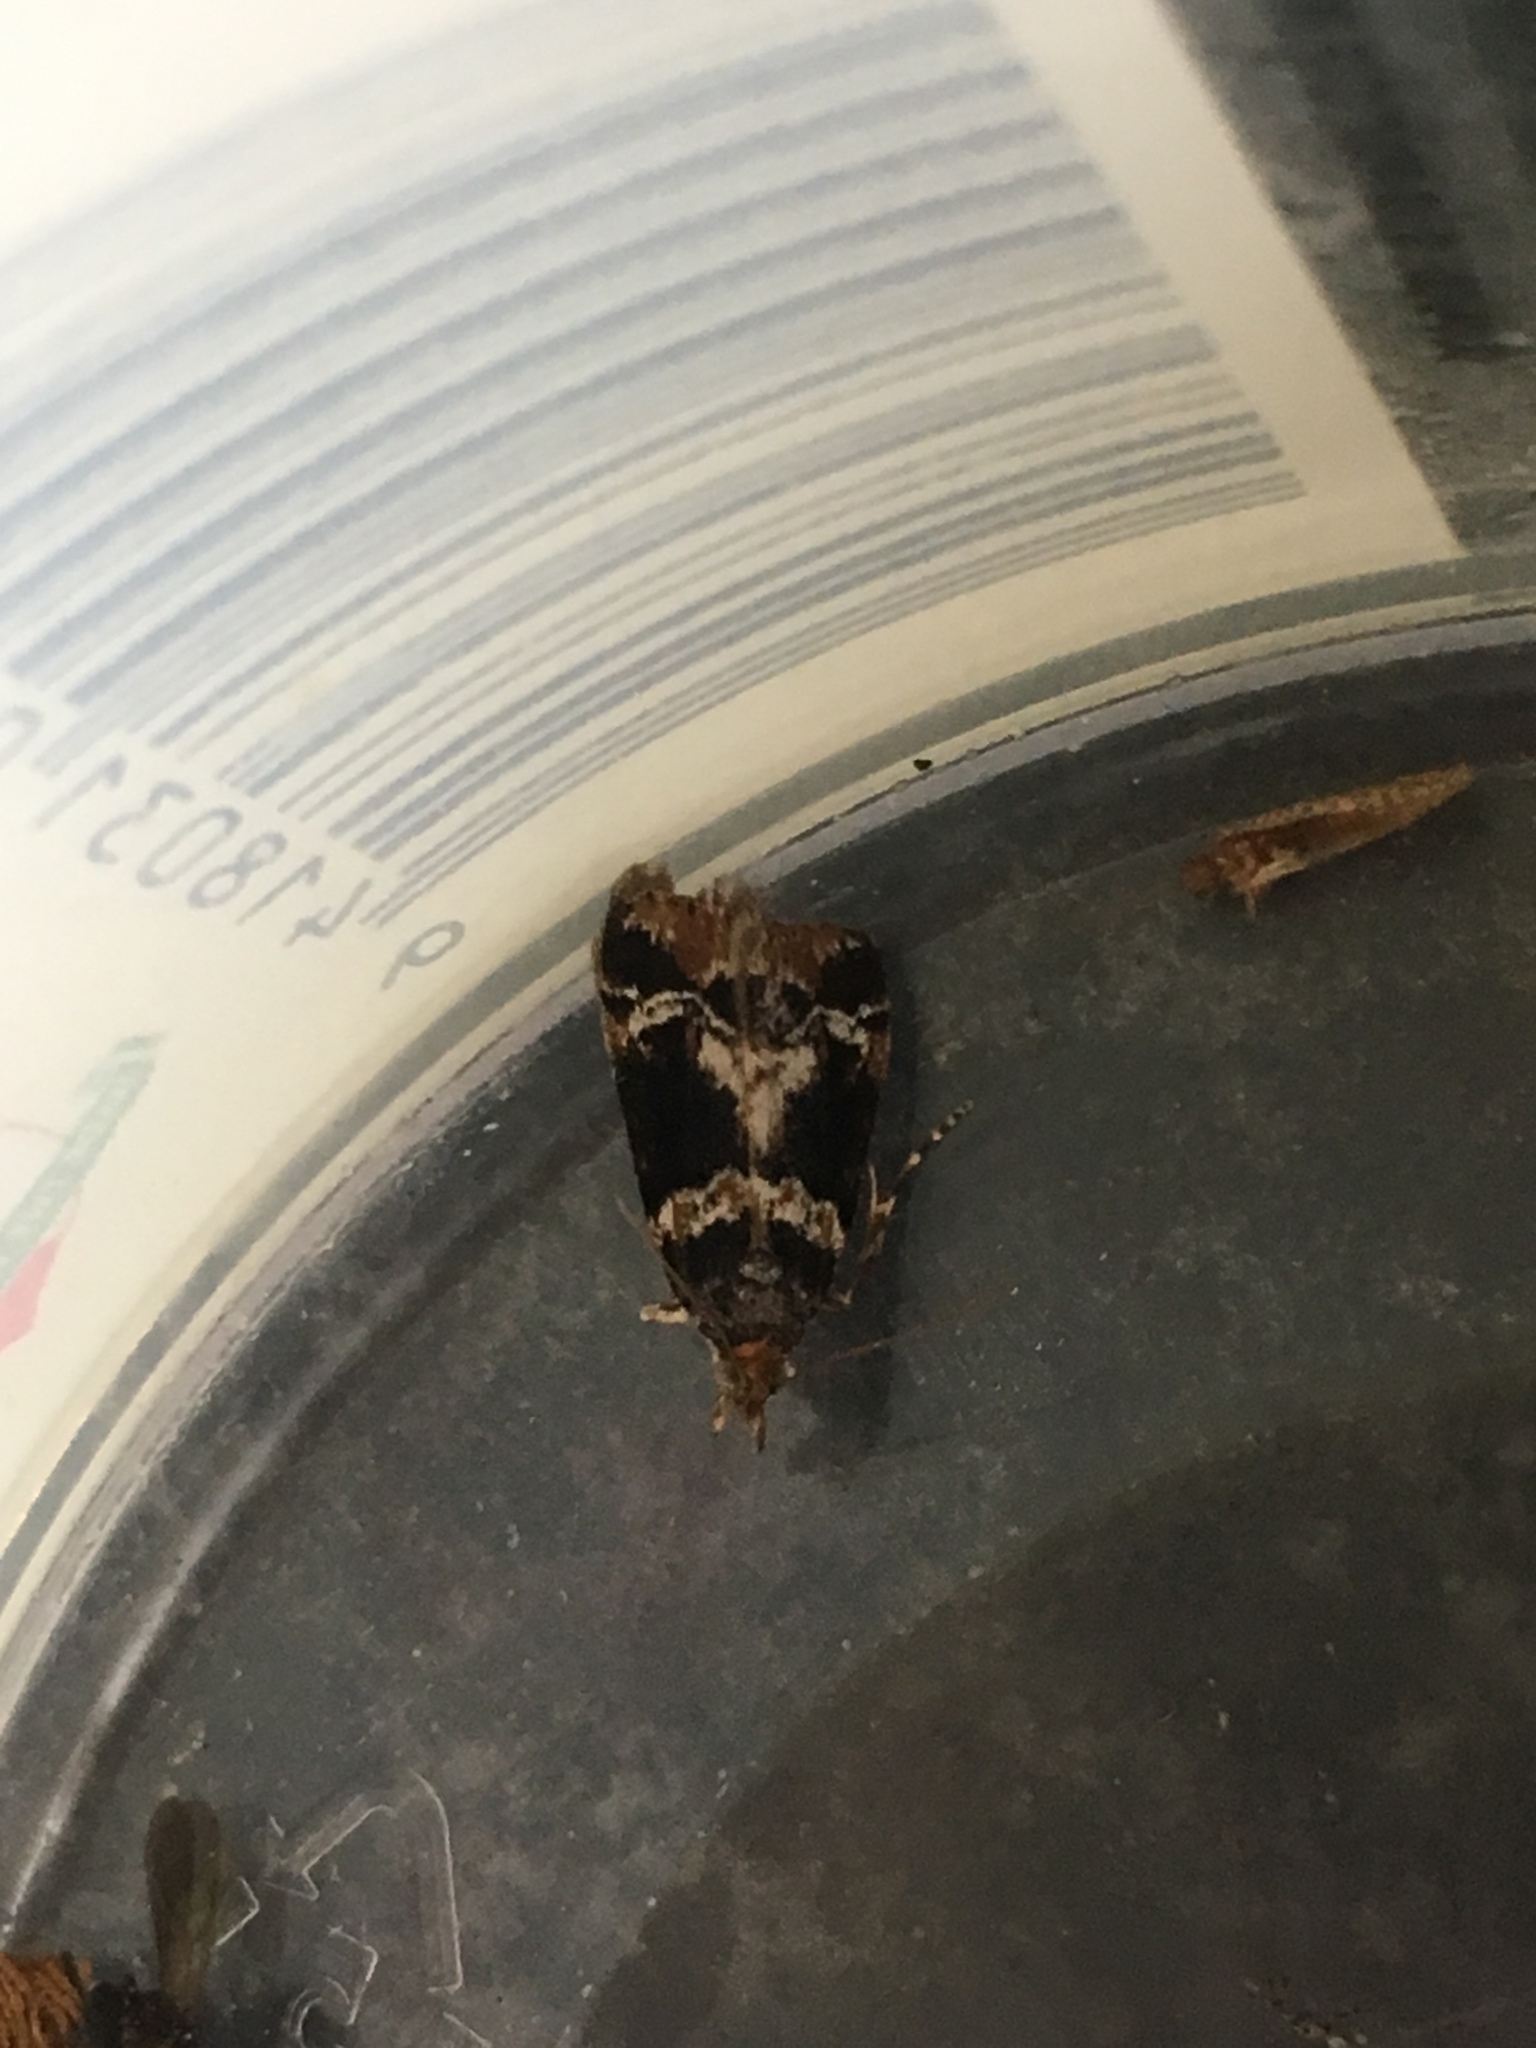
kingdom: Animalia
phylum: Arthropoda
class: Insecta
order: Lepidoptera
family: Crambidae
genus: Eudonia
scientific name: Eudonia zophochlaena
